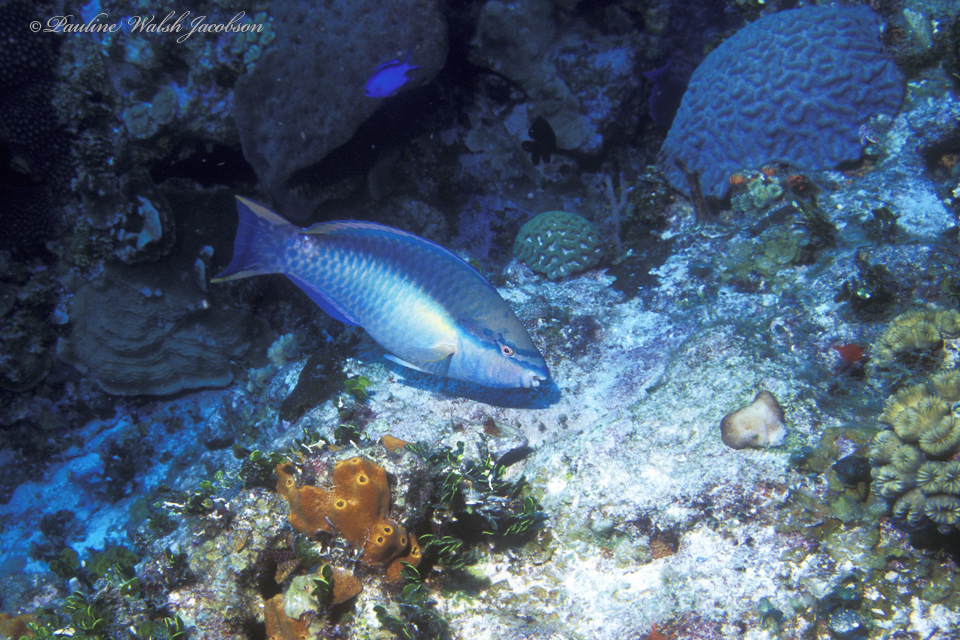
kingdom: Animalia
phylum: Chordata
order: Perciformes
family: Scaridae
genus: Scarus
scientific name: Scarus taeniopterus
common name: Princess parrotfish
